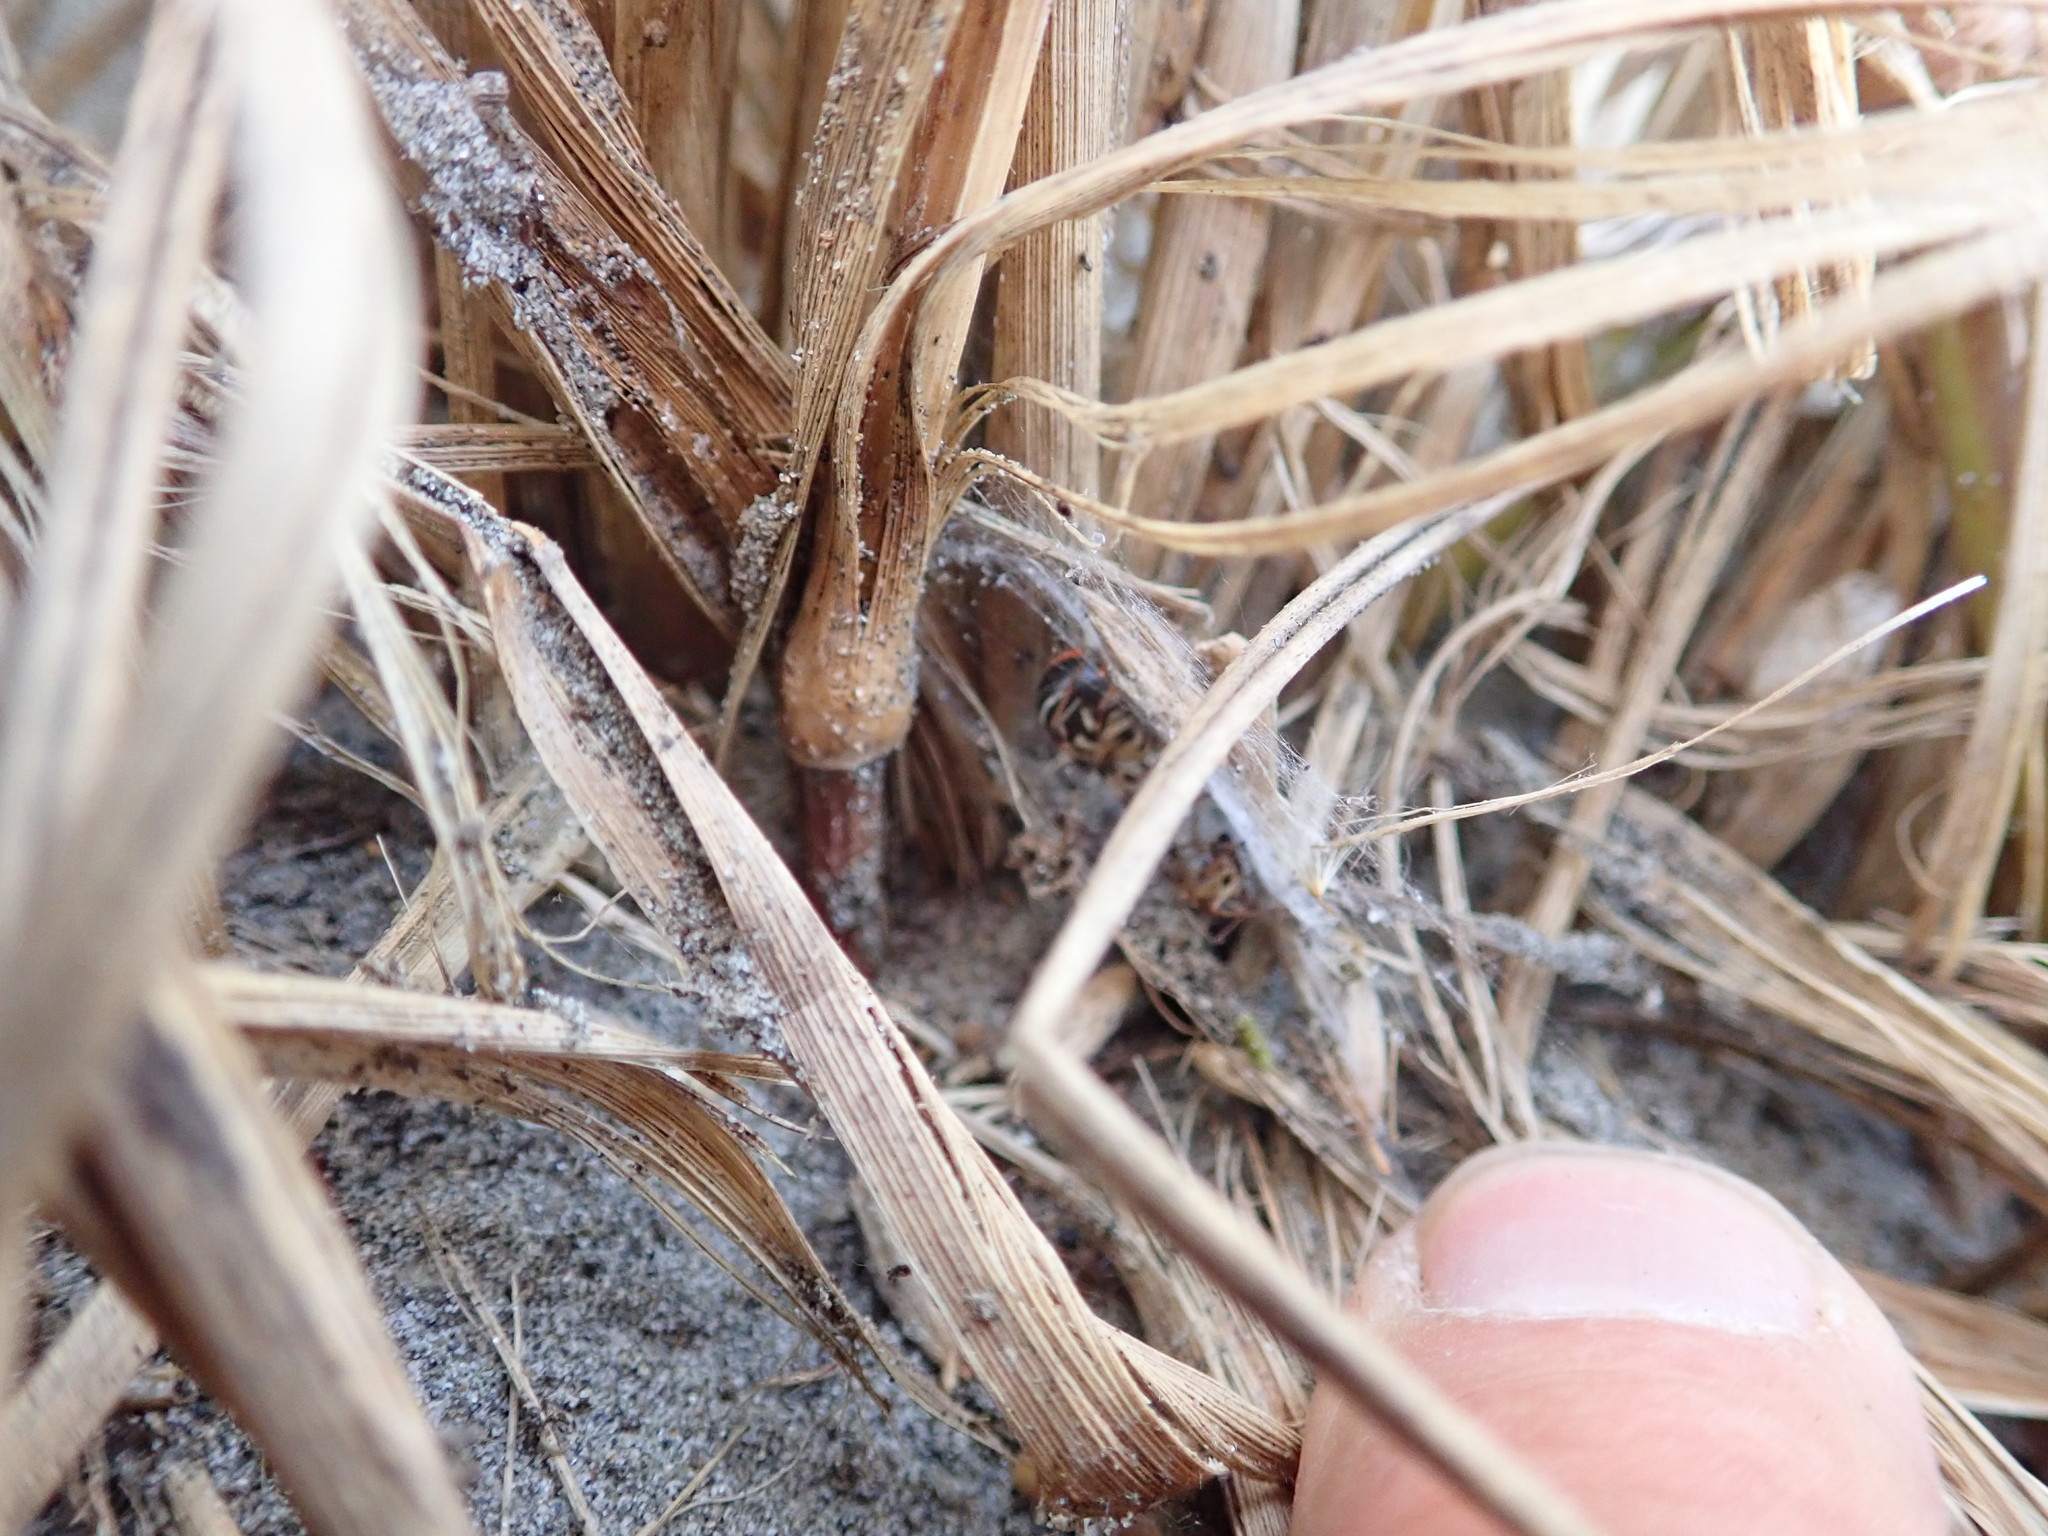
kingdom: Animalia
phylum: Arthropoda
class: Arachnida
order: Araneae
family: Theridiidae
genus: Latrodectus
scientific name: Latrodectus katipo
